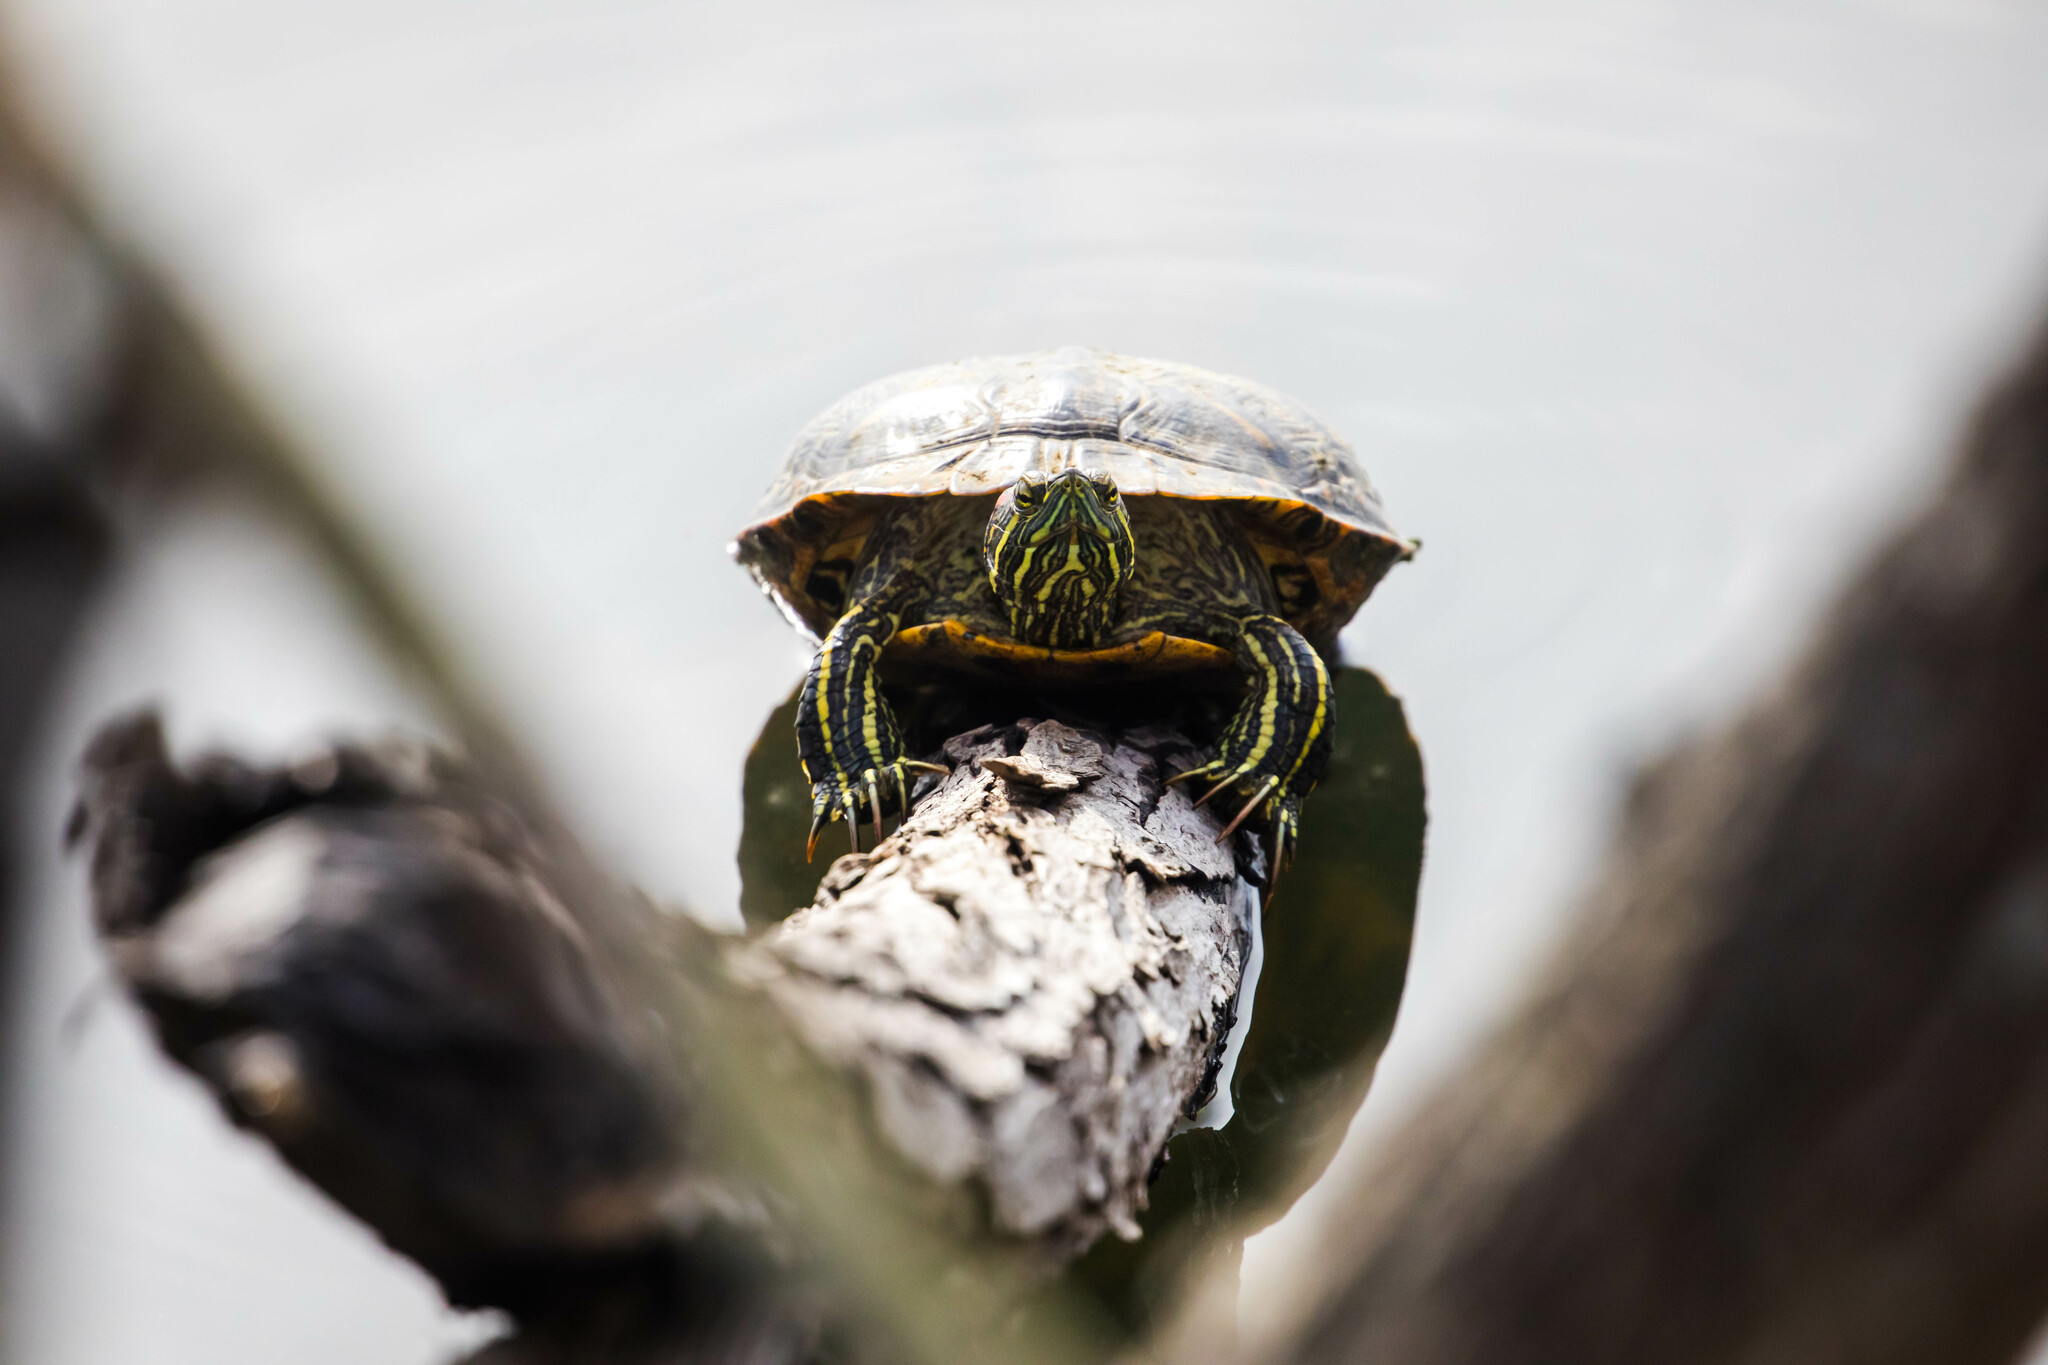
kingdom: Animalia
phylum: Chordata
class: Testudines
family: Emydidae
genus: Trachemys
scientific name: Trachemys scripta
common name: Slider
